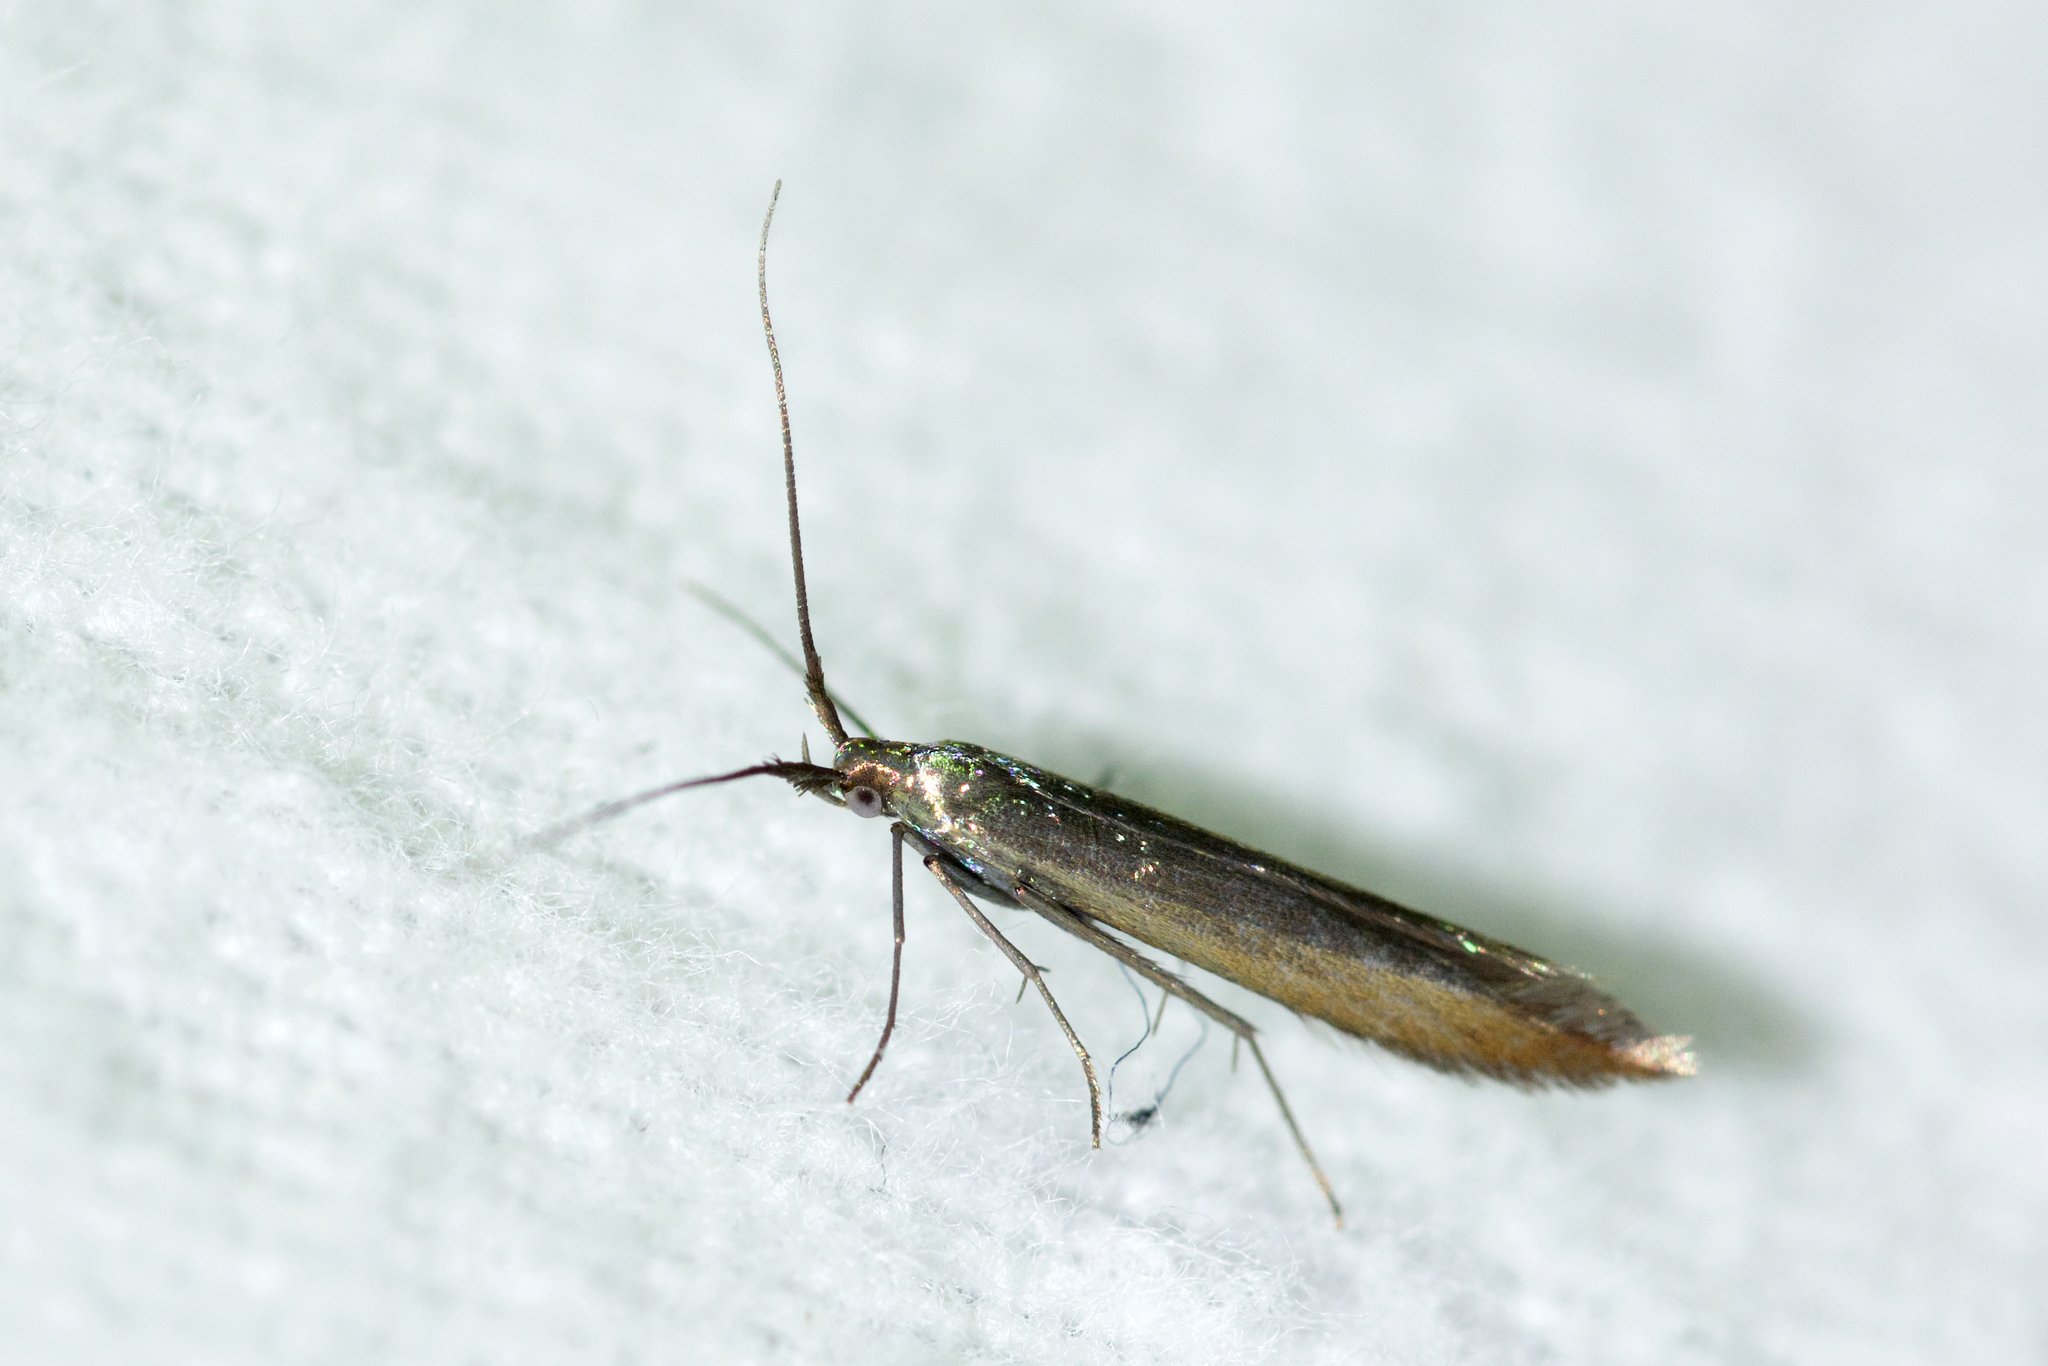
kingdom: Animalia
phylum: Arthropoda
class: Insecta
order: Lepidoptera
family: Coleophoridae
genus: Coleophora
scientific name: Coleophora trifolii
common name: Large clover case-bearer
